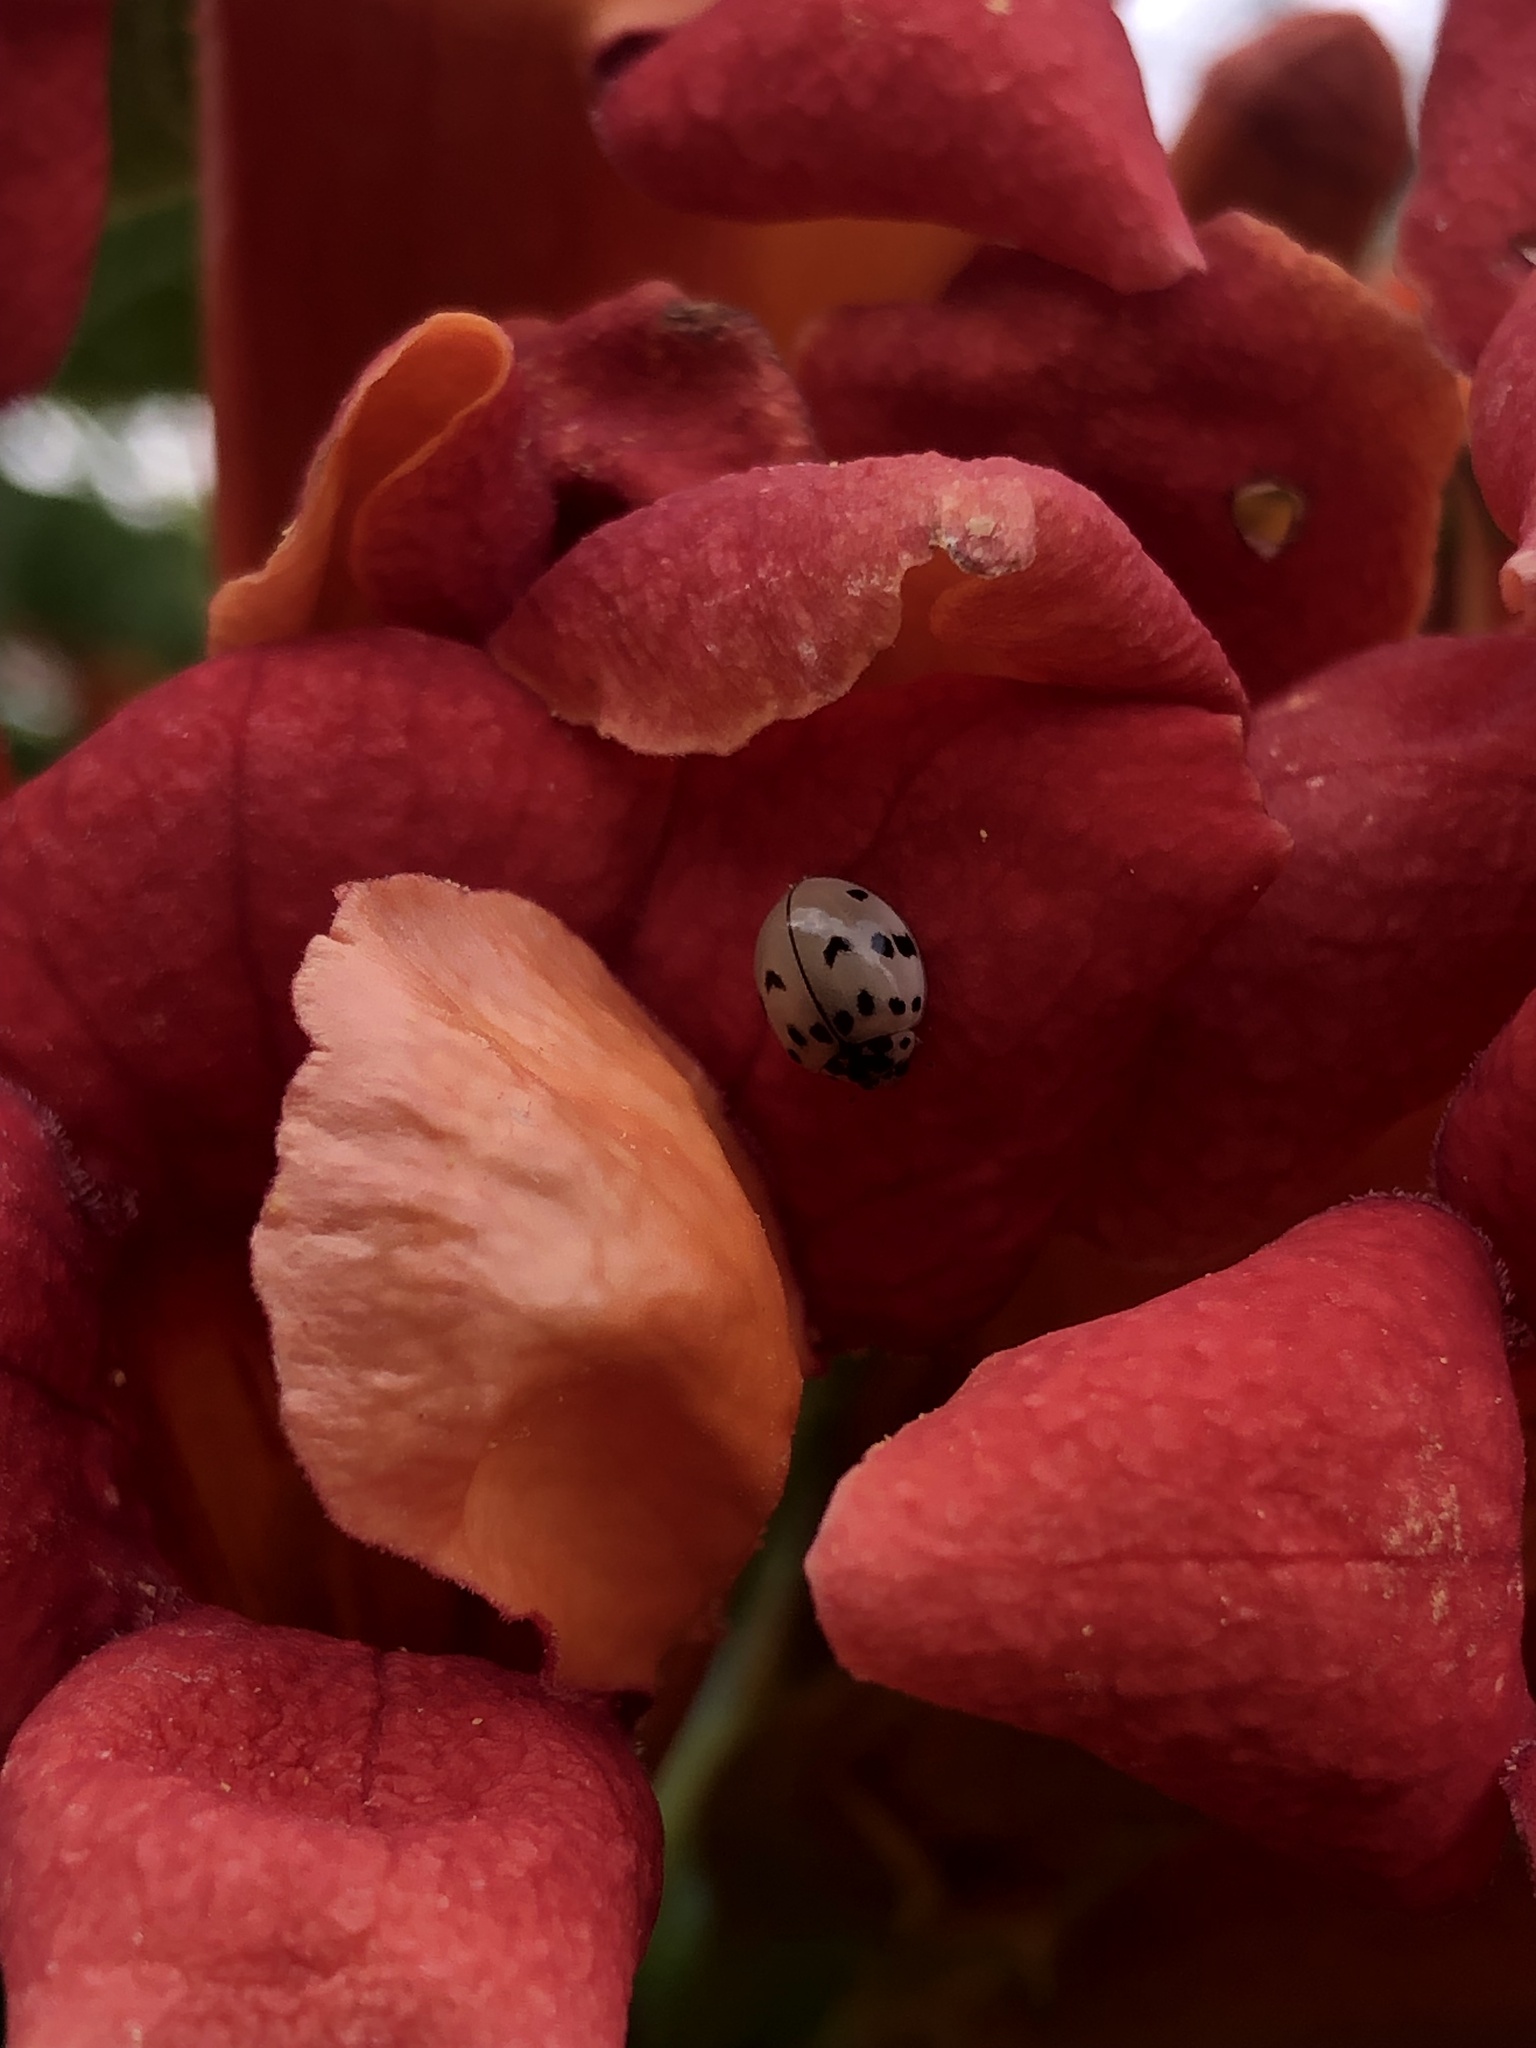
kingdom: Animalia
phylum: Arthropoda
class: Insecta
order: Coleoptera
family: Coccinellidae
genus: Olla
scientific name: Olla v-nigrum
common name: Ashy gray lady beetle
